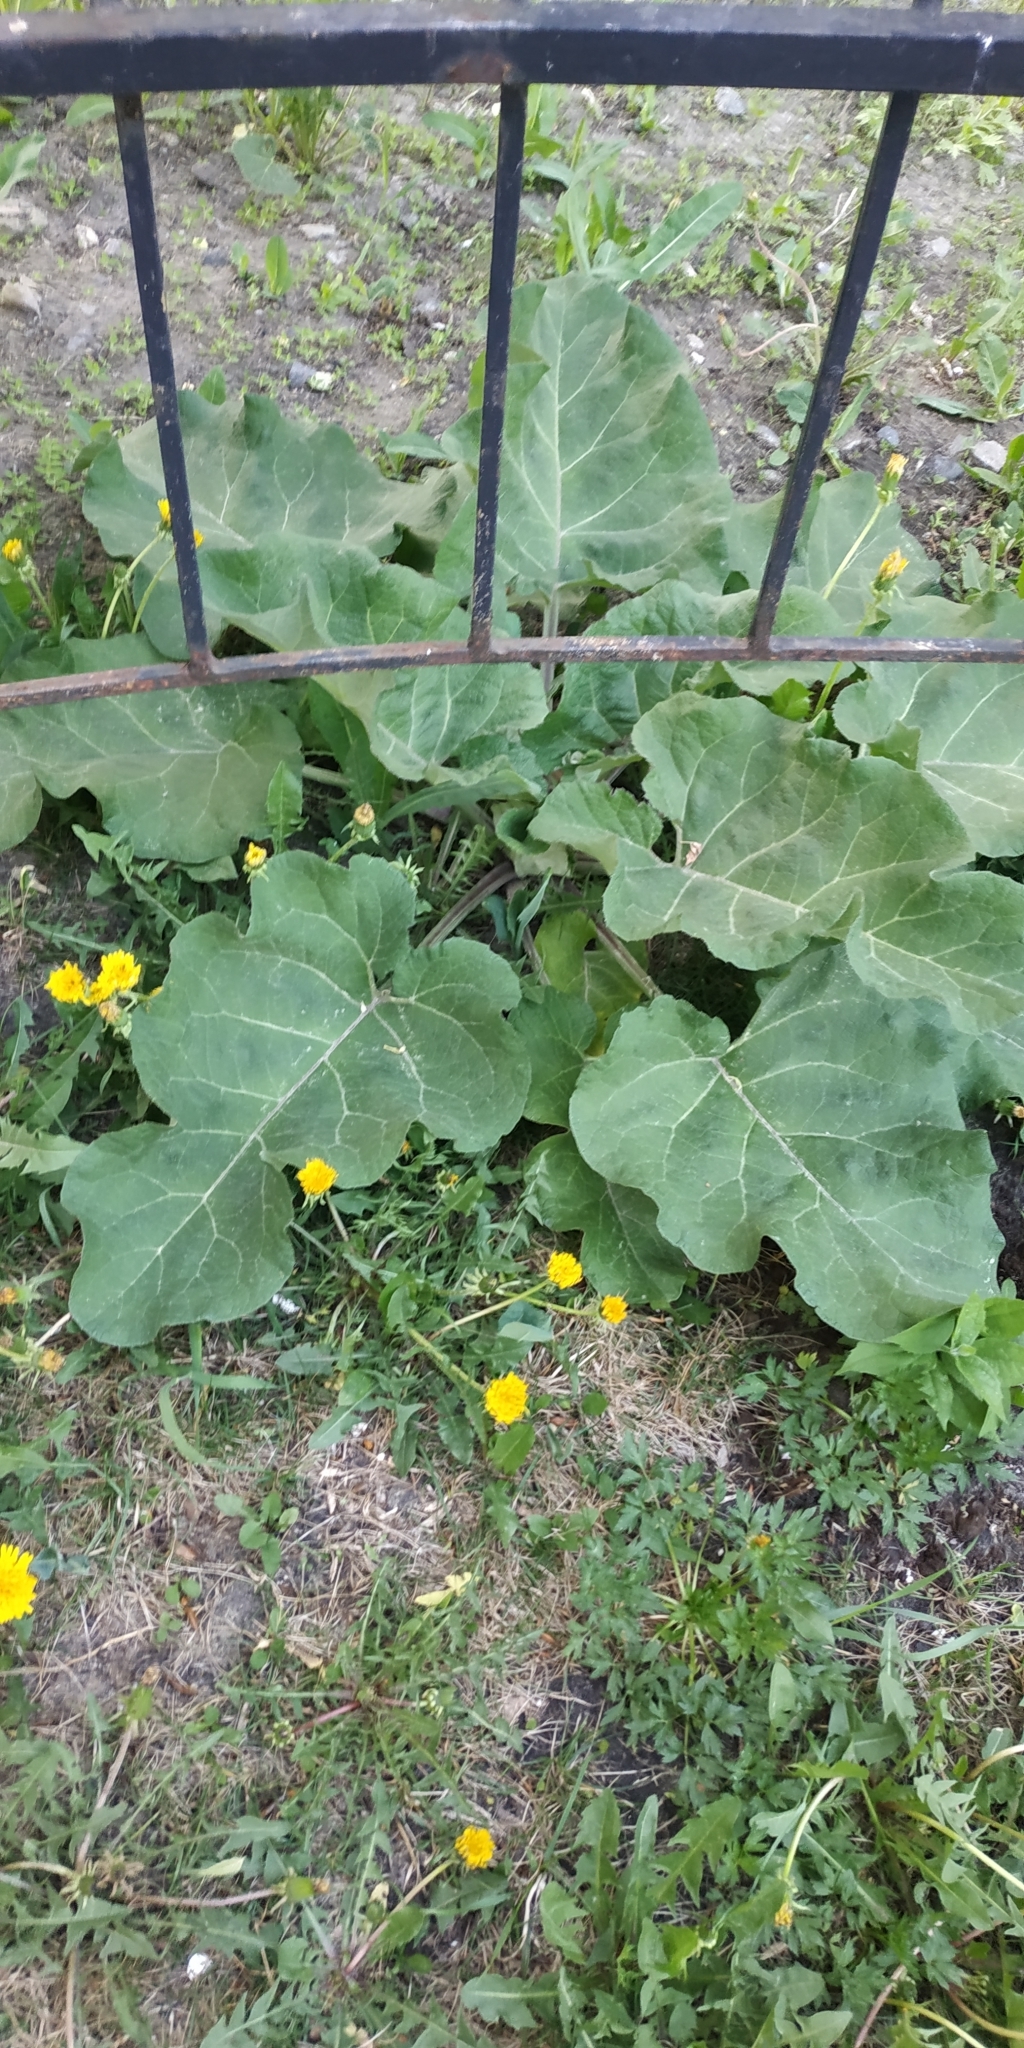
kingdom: Plantae
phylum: Tracheophyta
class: Magnoliopsida
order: Asterales
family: Asteraceae
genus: Arctium
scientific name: Arctium tomentosum
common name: Woolly burdock
